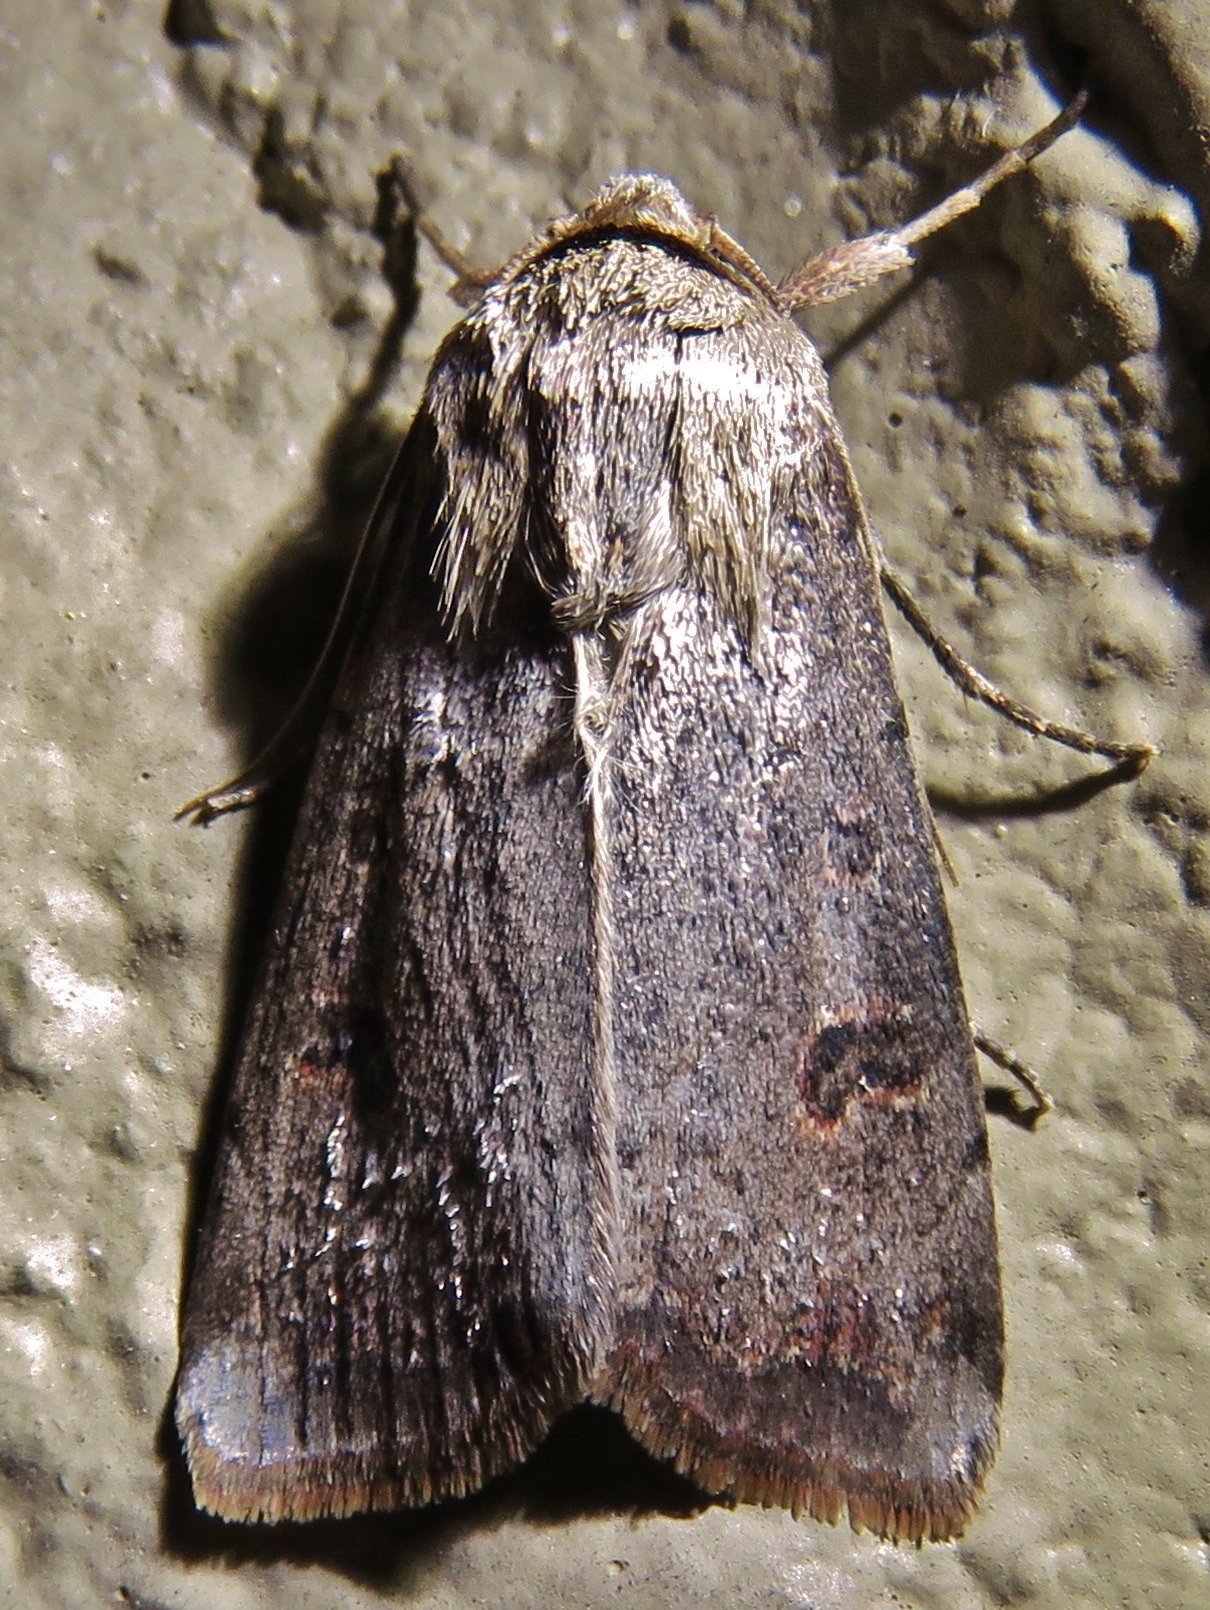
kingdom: Animalia
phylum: Arthropoda
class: Insecta
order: Lepidoptera
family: Noctuidae
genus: Anicla
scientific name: Anicla infecta
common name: Green cutworm
